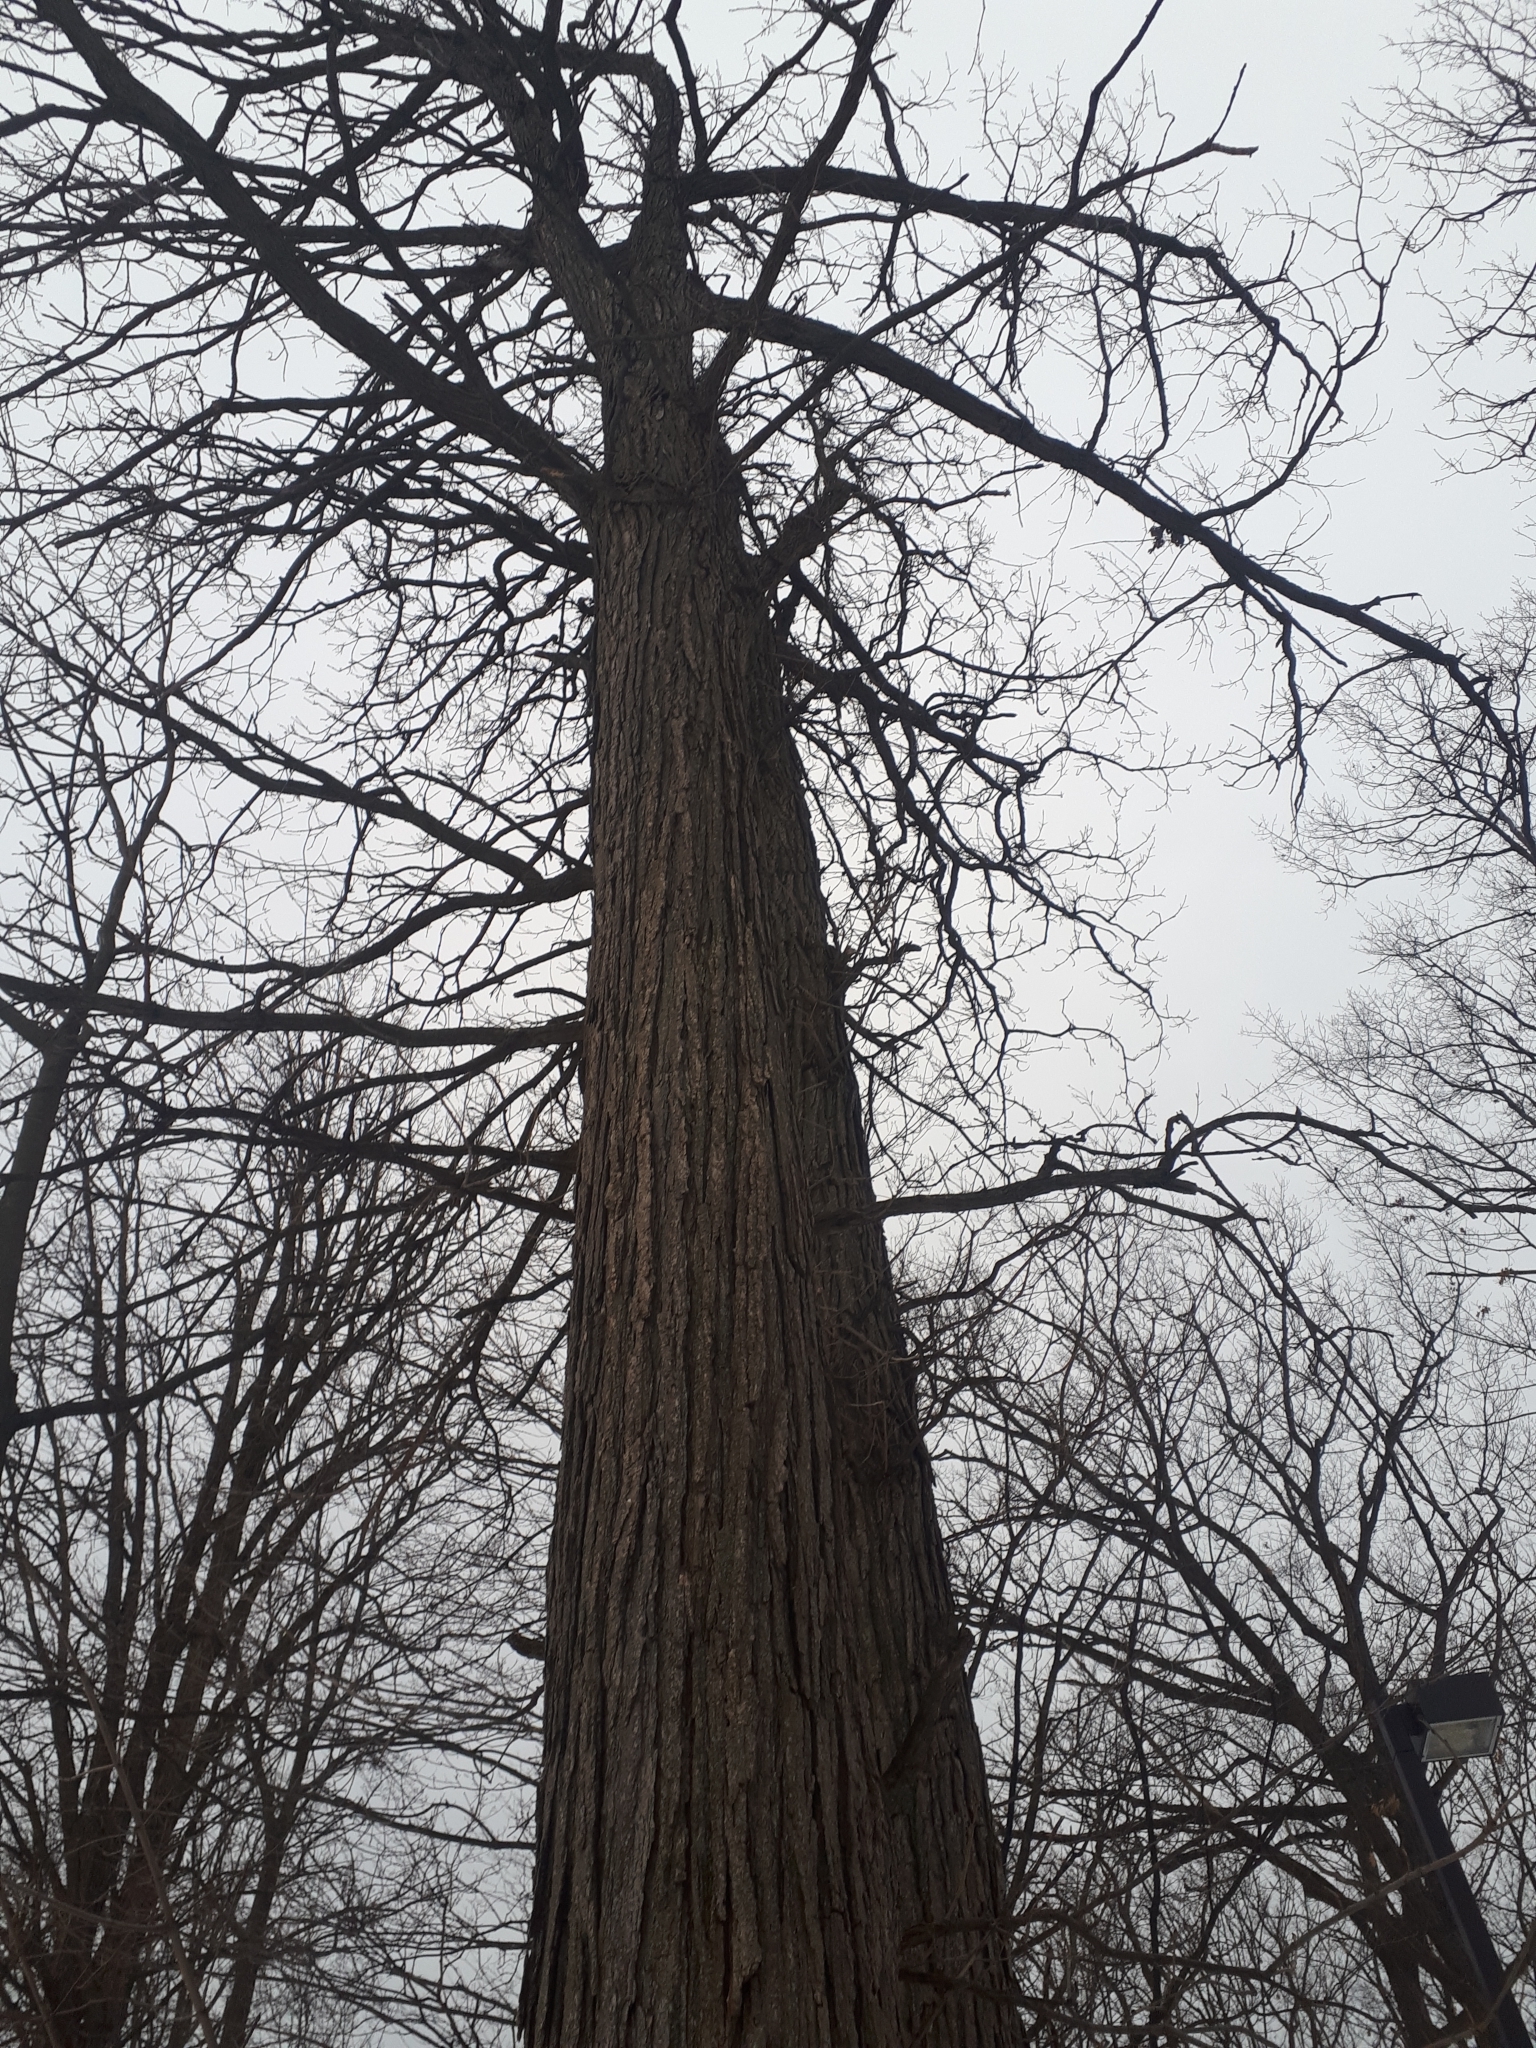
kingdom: Plantae
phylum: Tracheophyta
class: Magnoliopsida
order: Fagales
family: Fagaceae
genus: Quercus
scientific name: Quercus macrocarpa
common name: Bur oak
